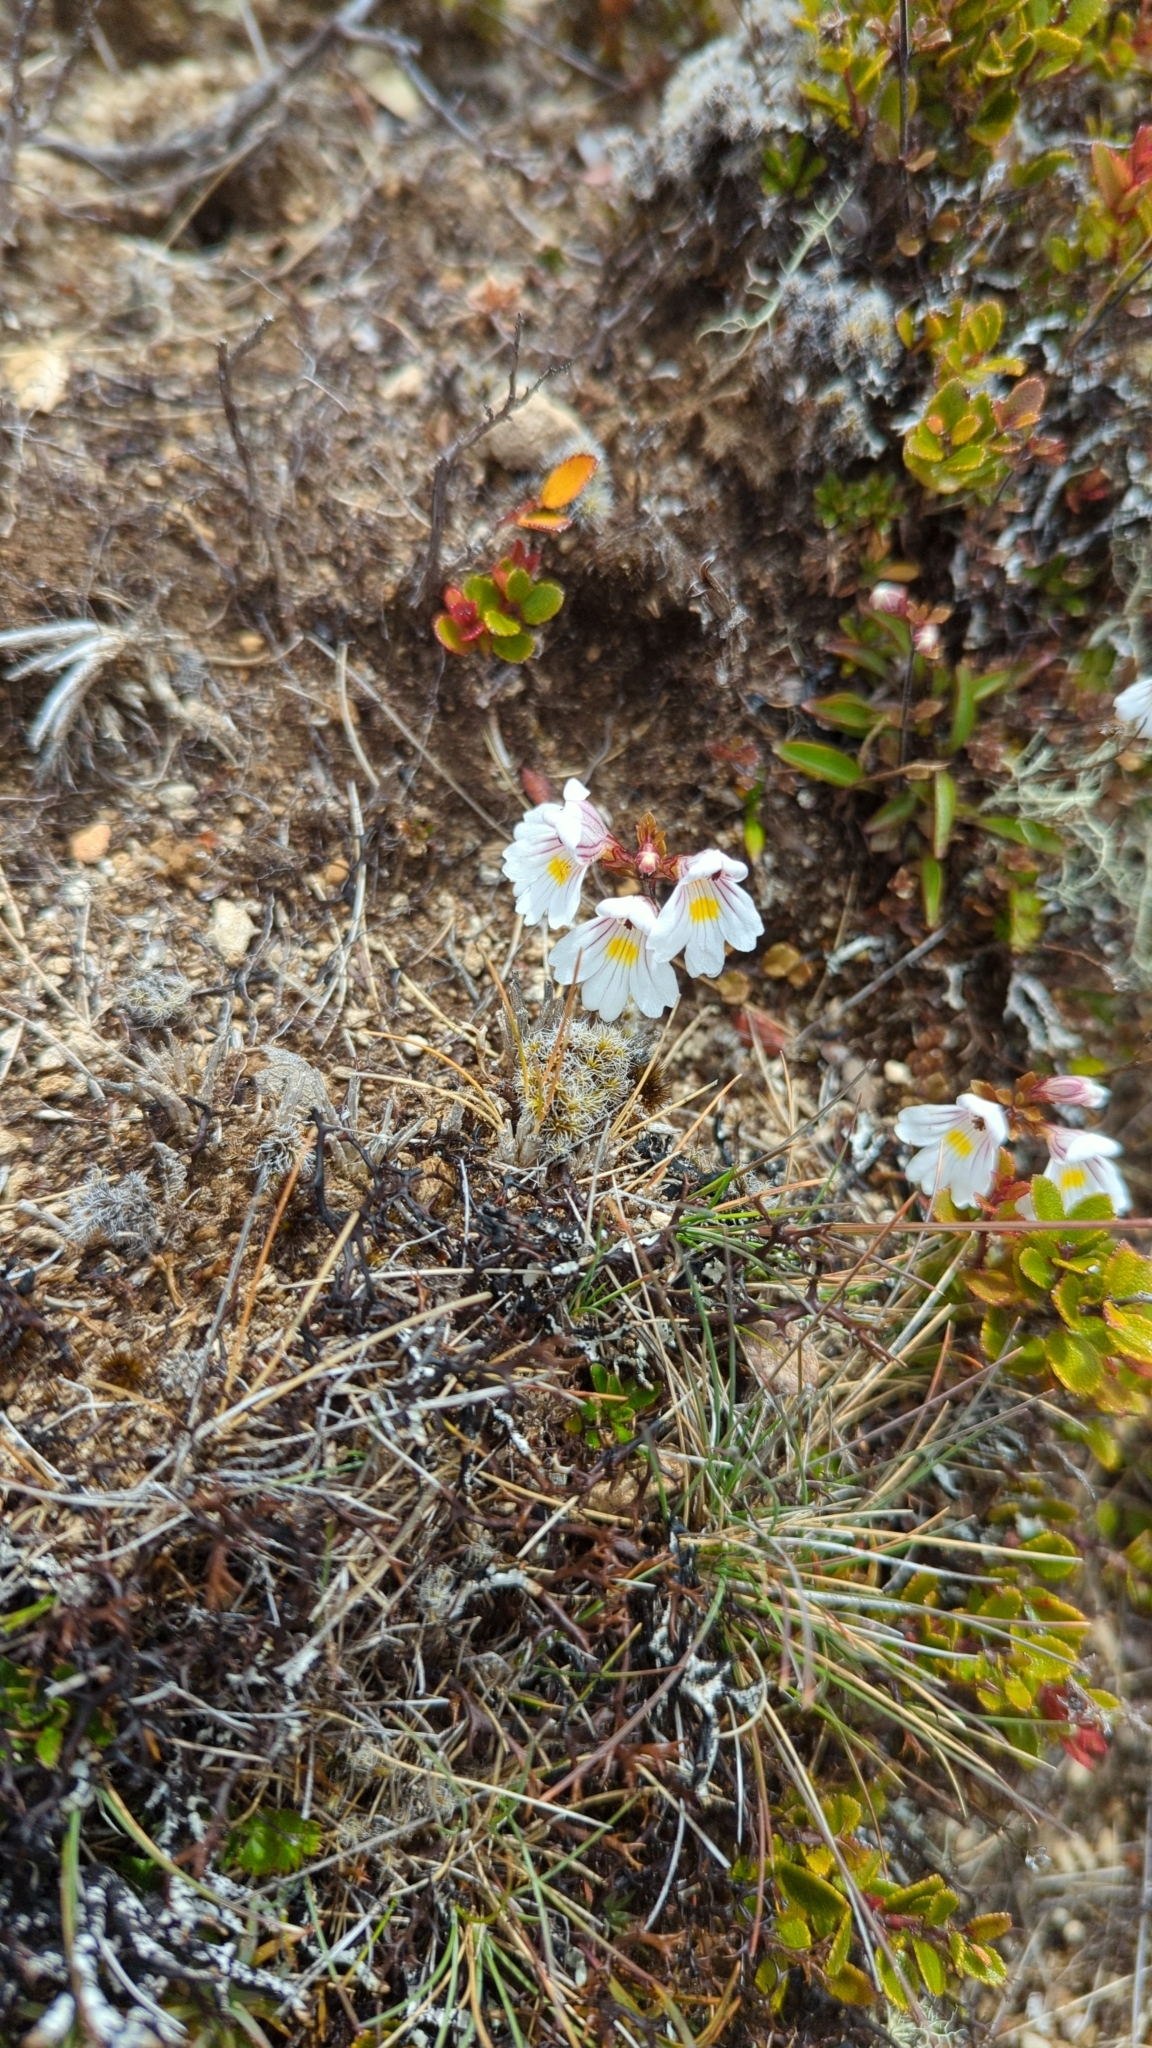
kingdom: Plantae
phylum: Tracheophyta
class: Magnoliopsida
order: Lamiales
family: Orobanchaceae
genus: Euphrasia
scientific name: Euphrasia cuneata
